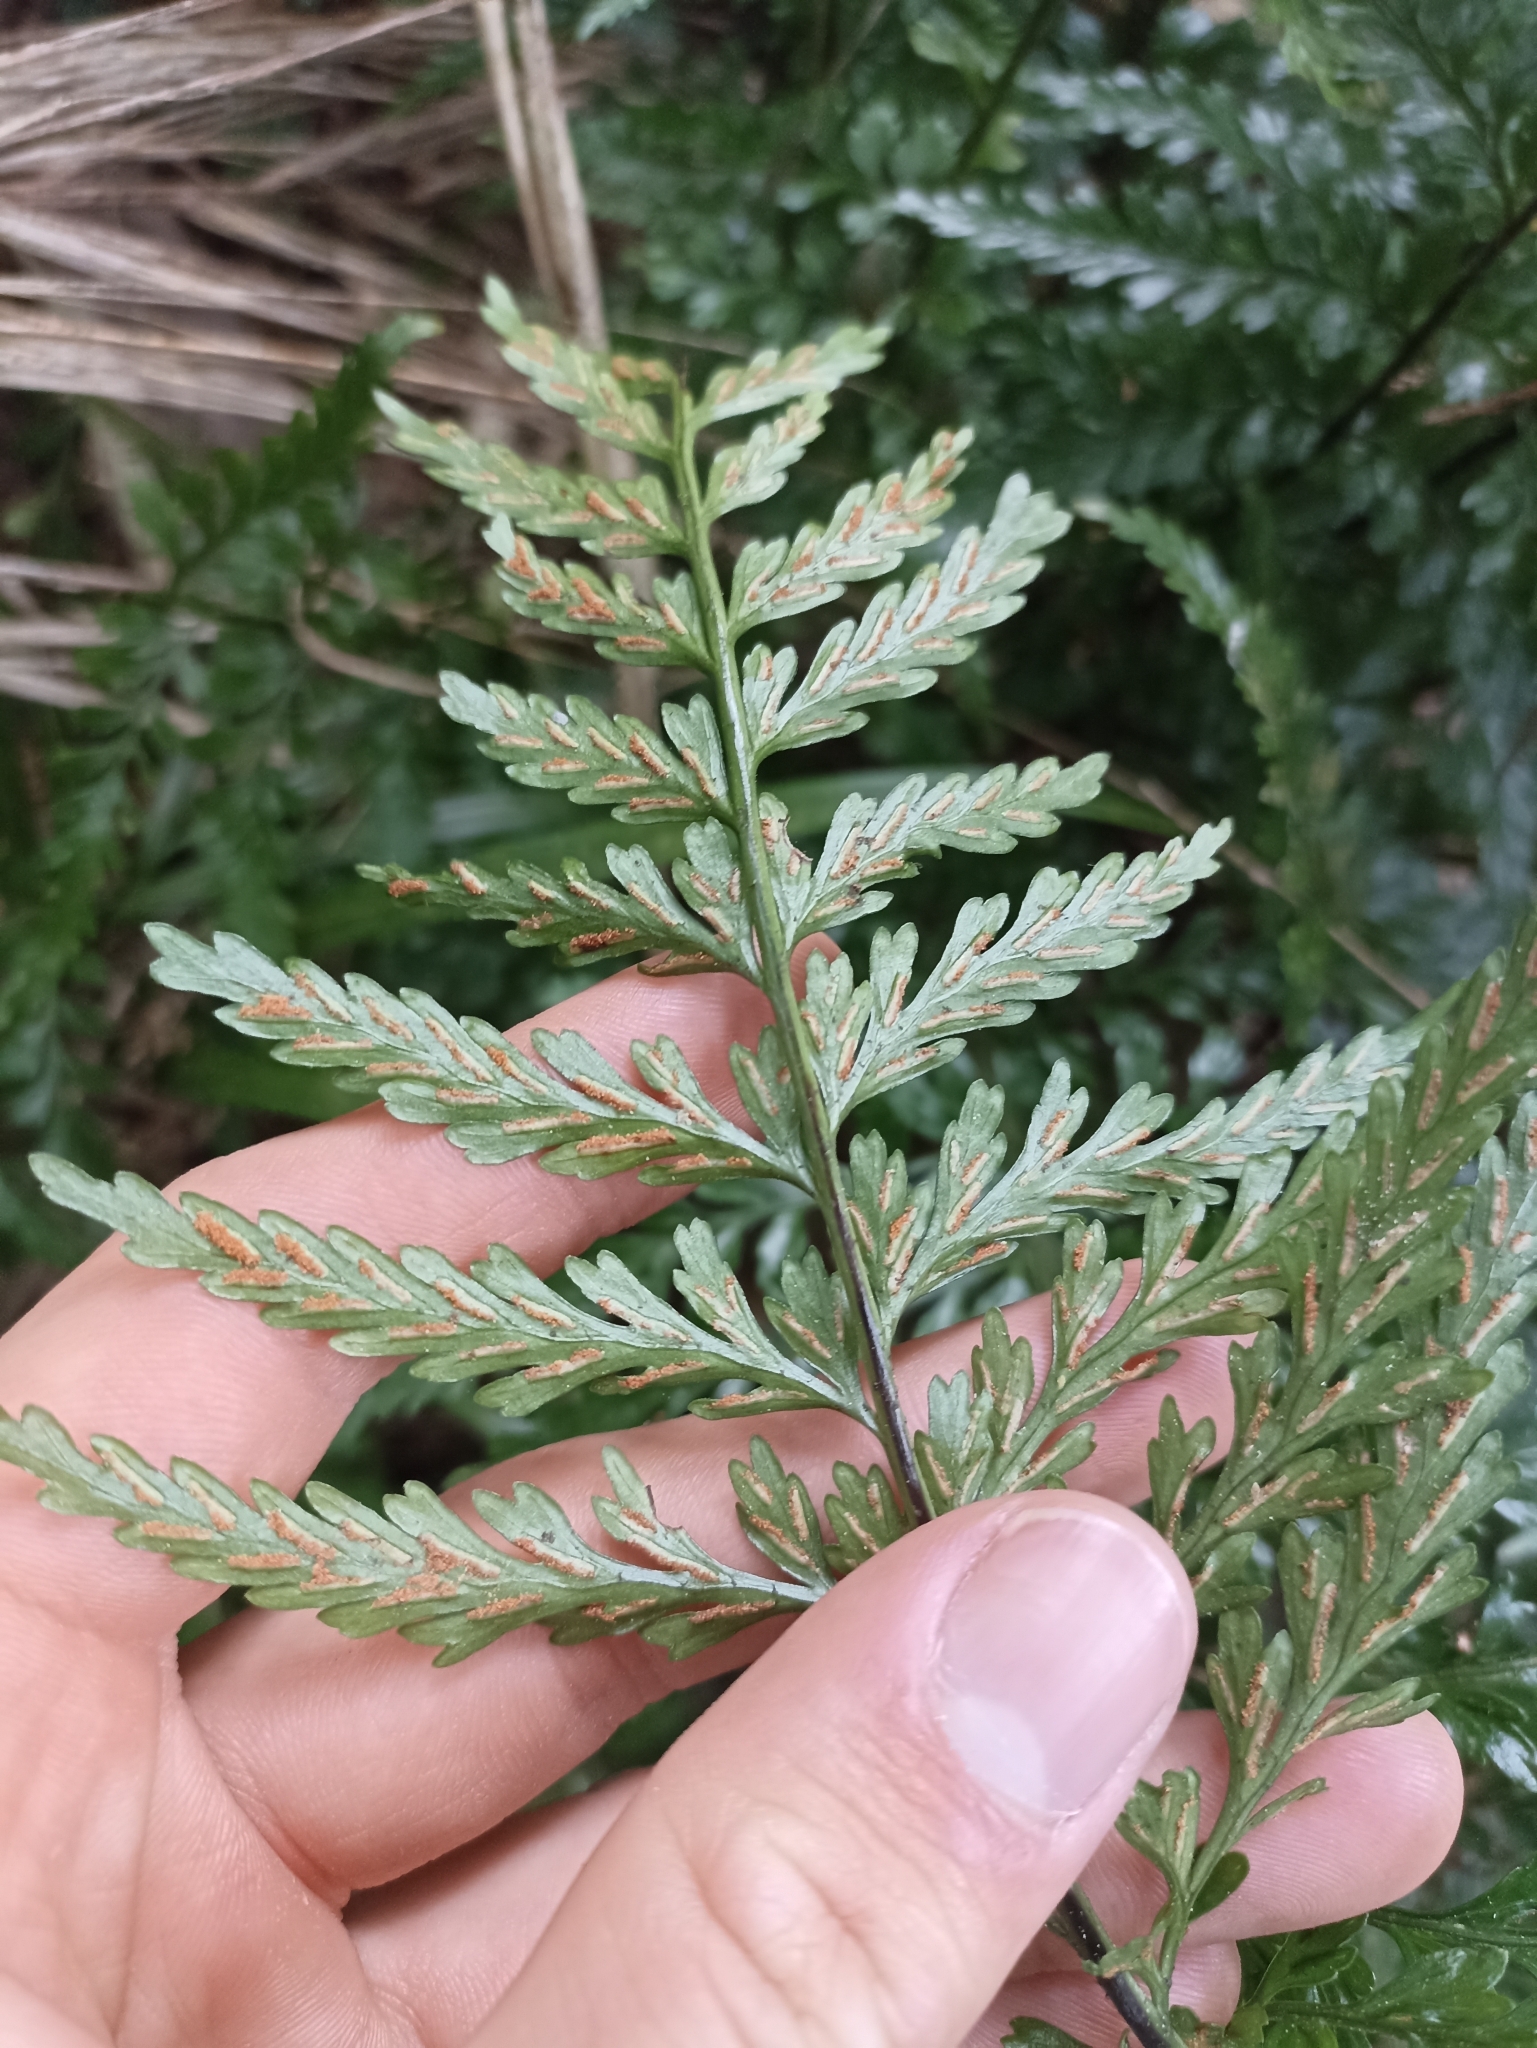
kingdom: Plantae
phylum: Tracheophyta
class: Polypodiopsida
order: Polypodiales
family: Aspleniaceae
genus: Asplenium
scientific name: Asplenium lamprophyllum
